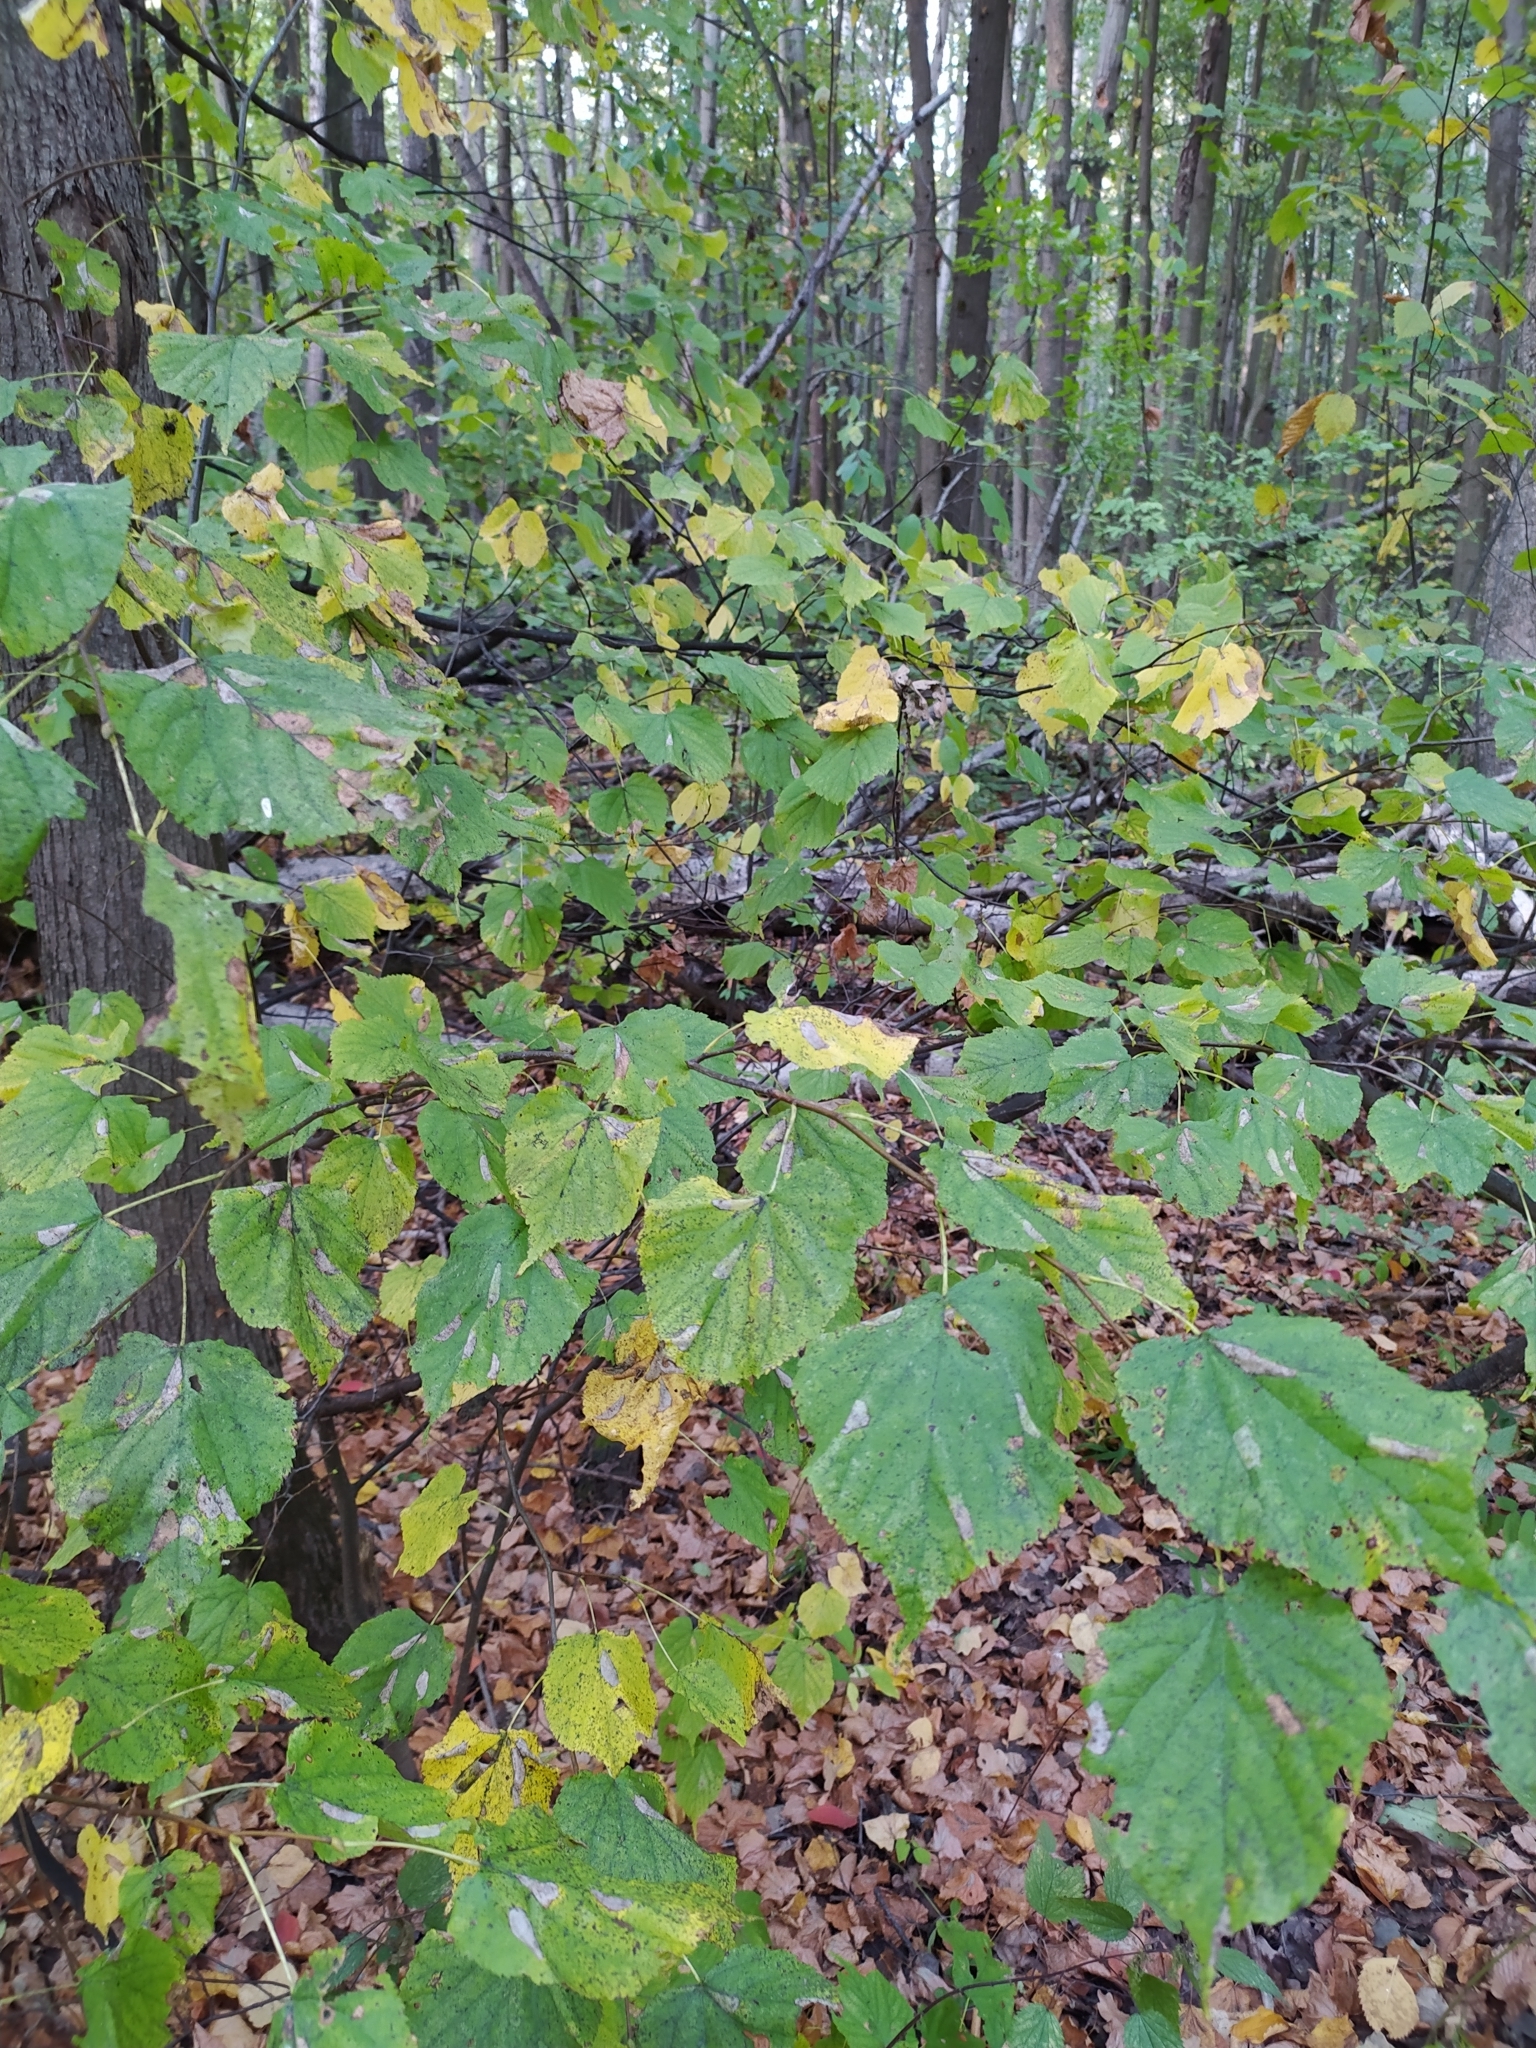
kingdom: Plantae
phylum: Tracheophyta
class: Magnoliopsida
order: Malvales
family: Malvaceae
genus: Tilia
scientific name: Tilia cordata
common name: Small-leaved lime
